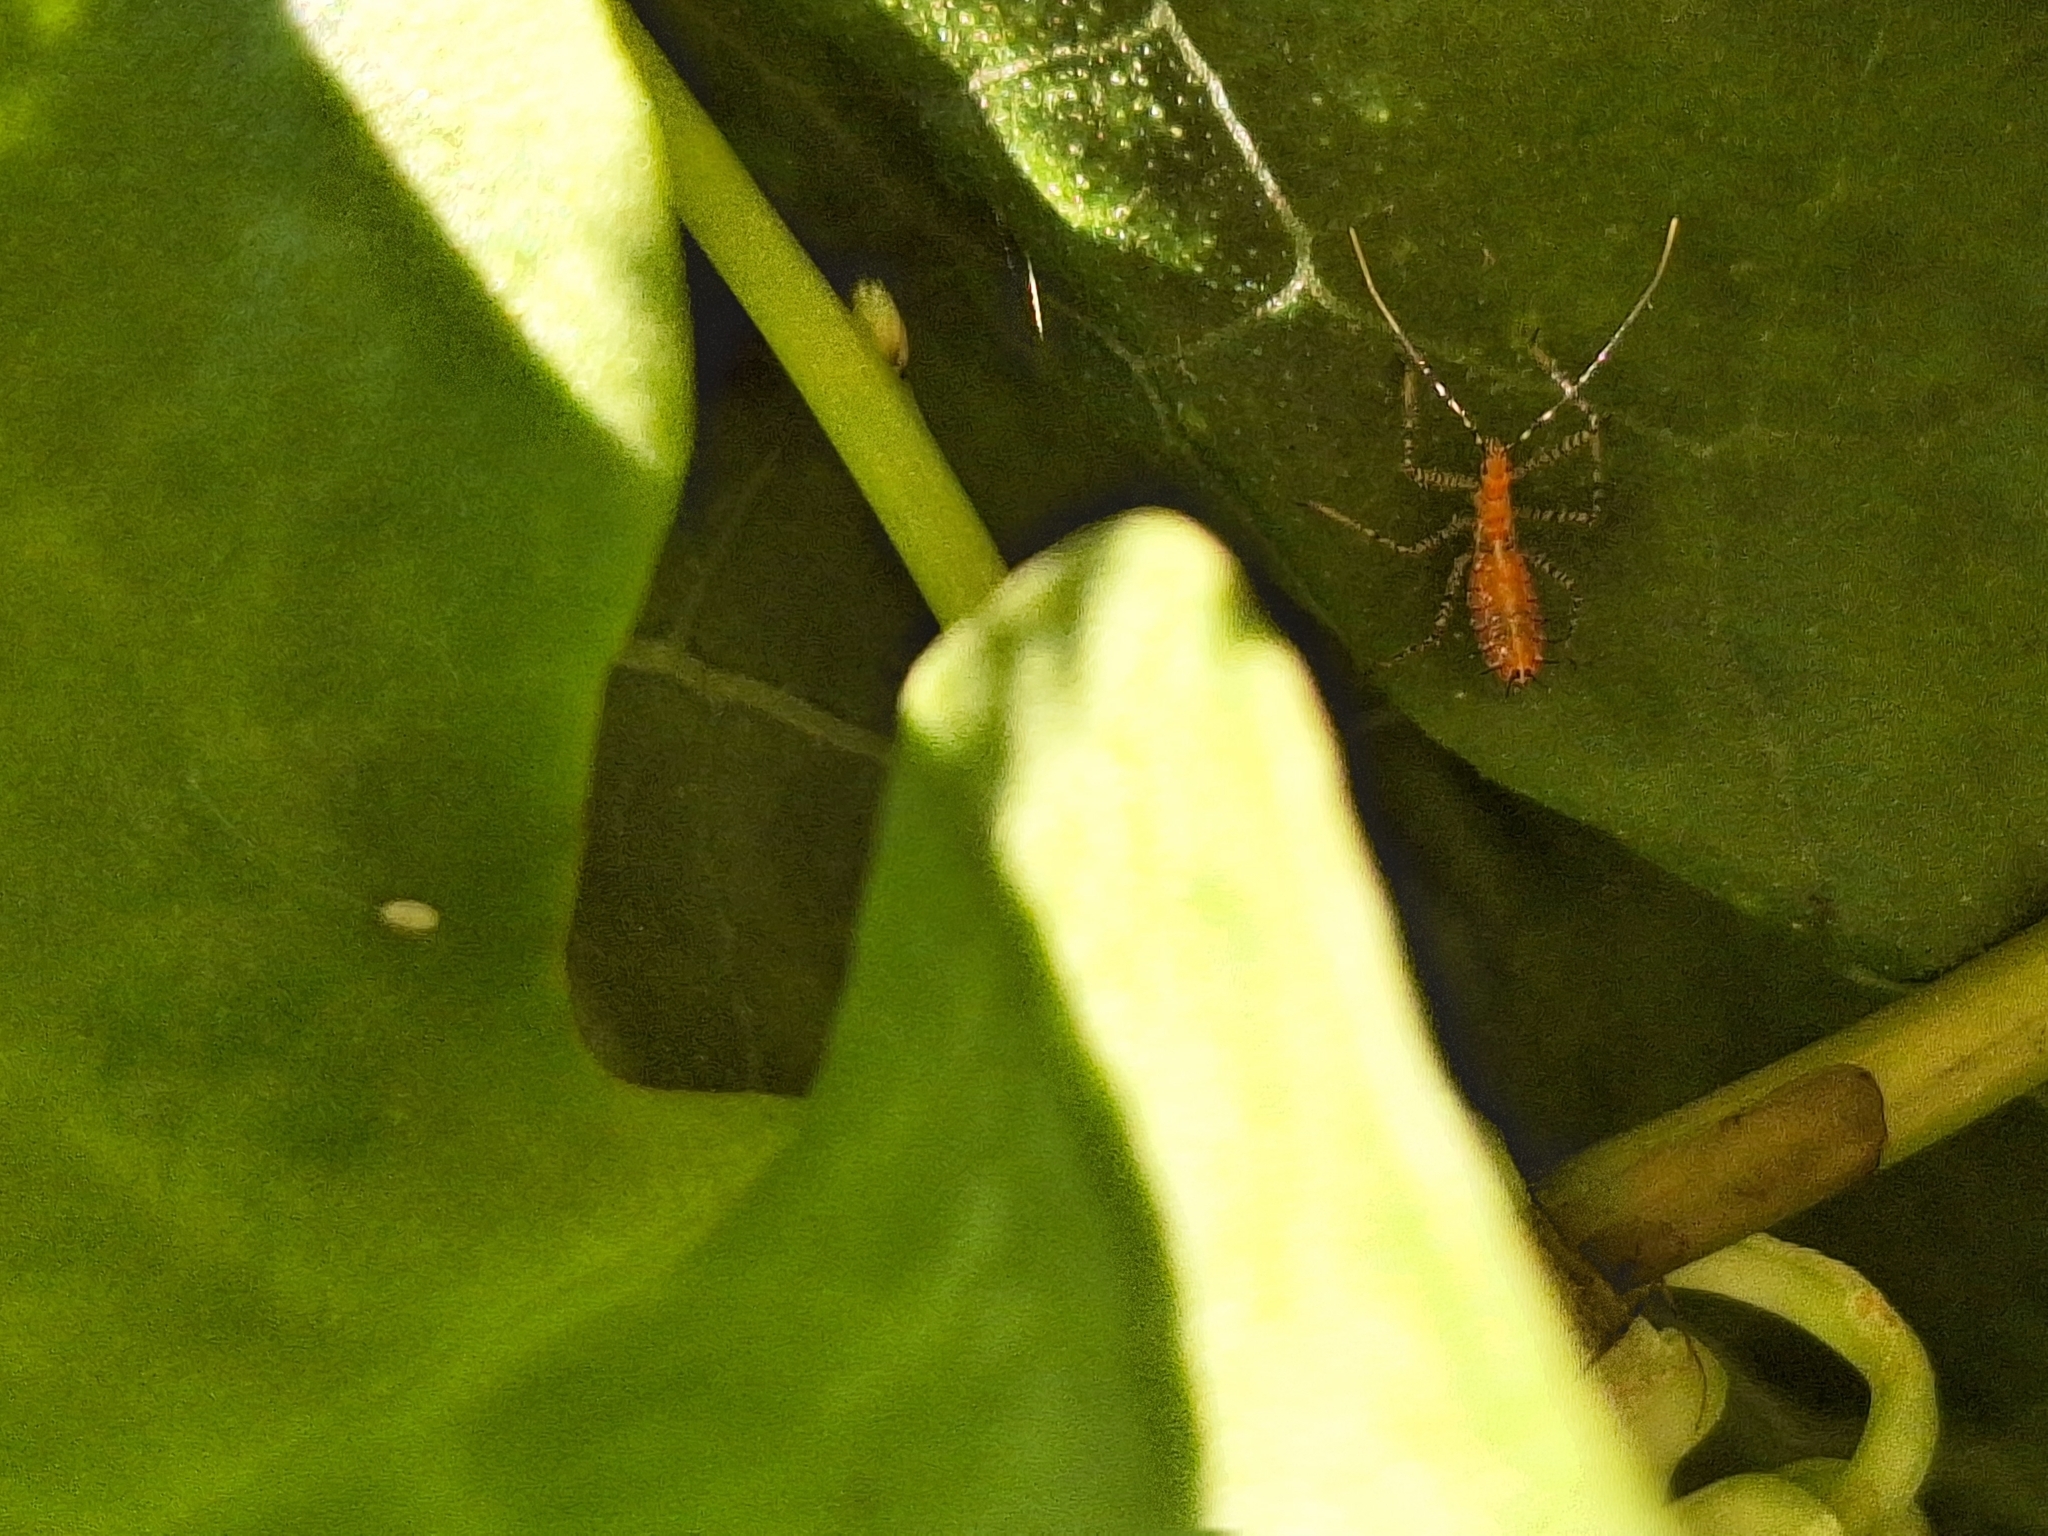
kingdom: Animalia
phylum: Arthropoda
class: Insecta
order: Hemiptera
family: Reduviidae
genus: Zelus
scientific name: Zelus renardii
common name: Assassin bug
